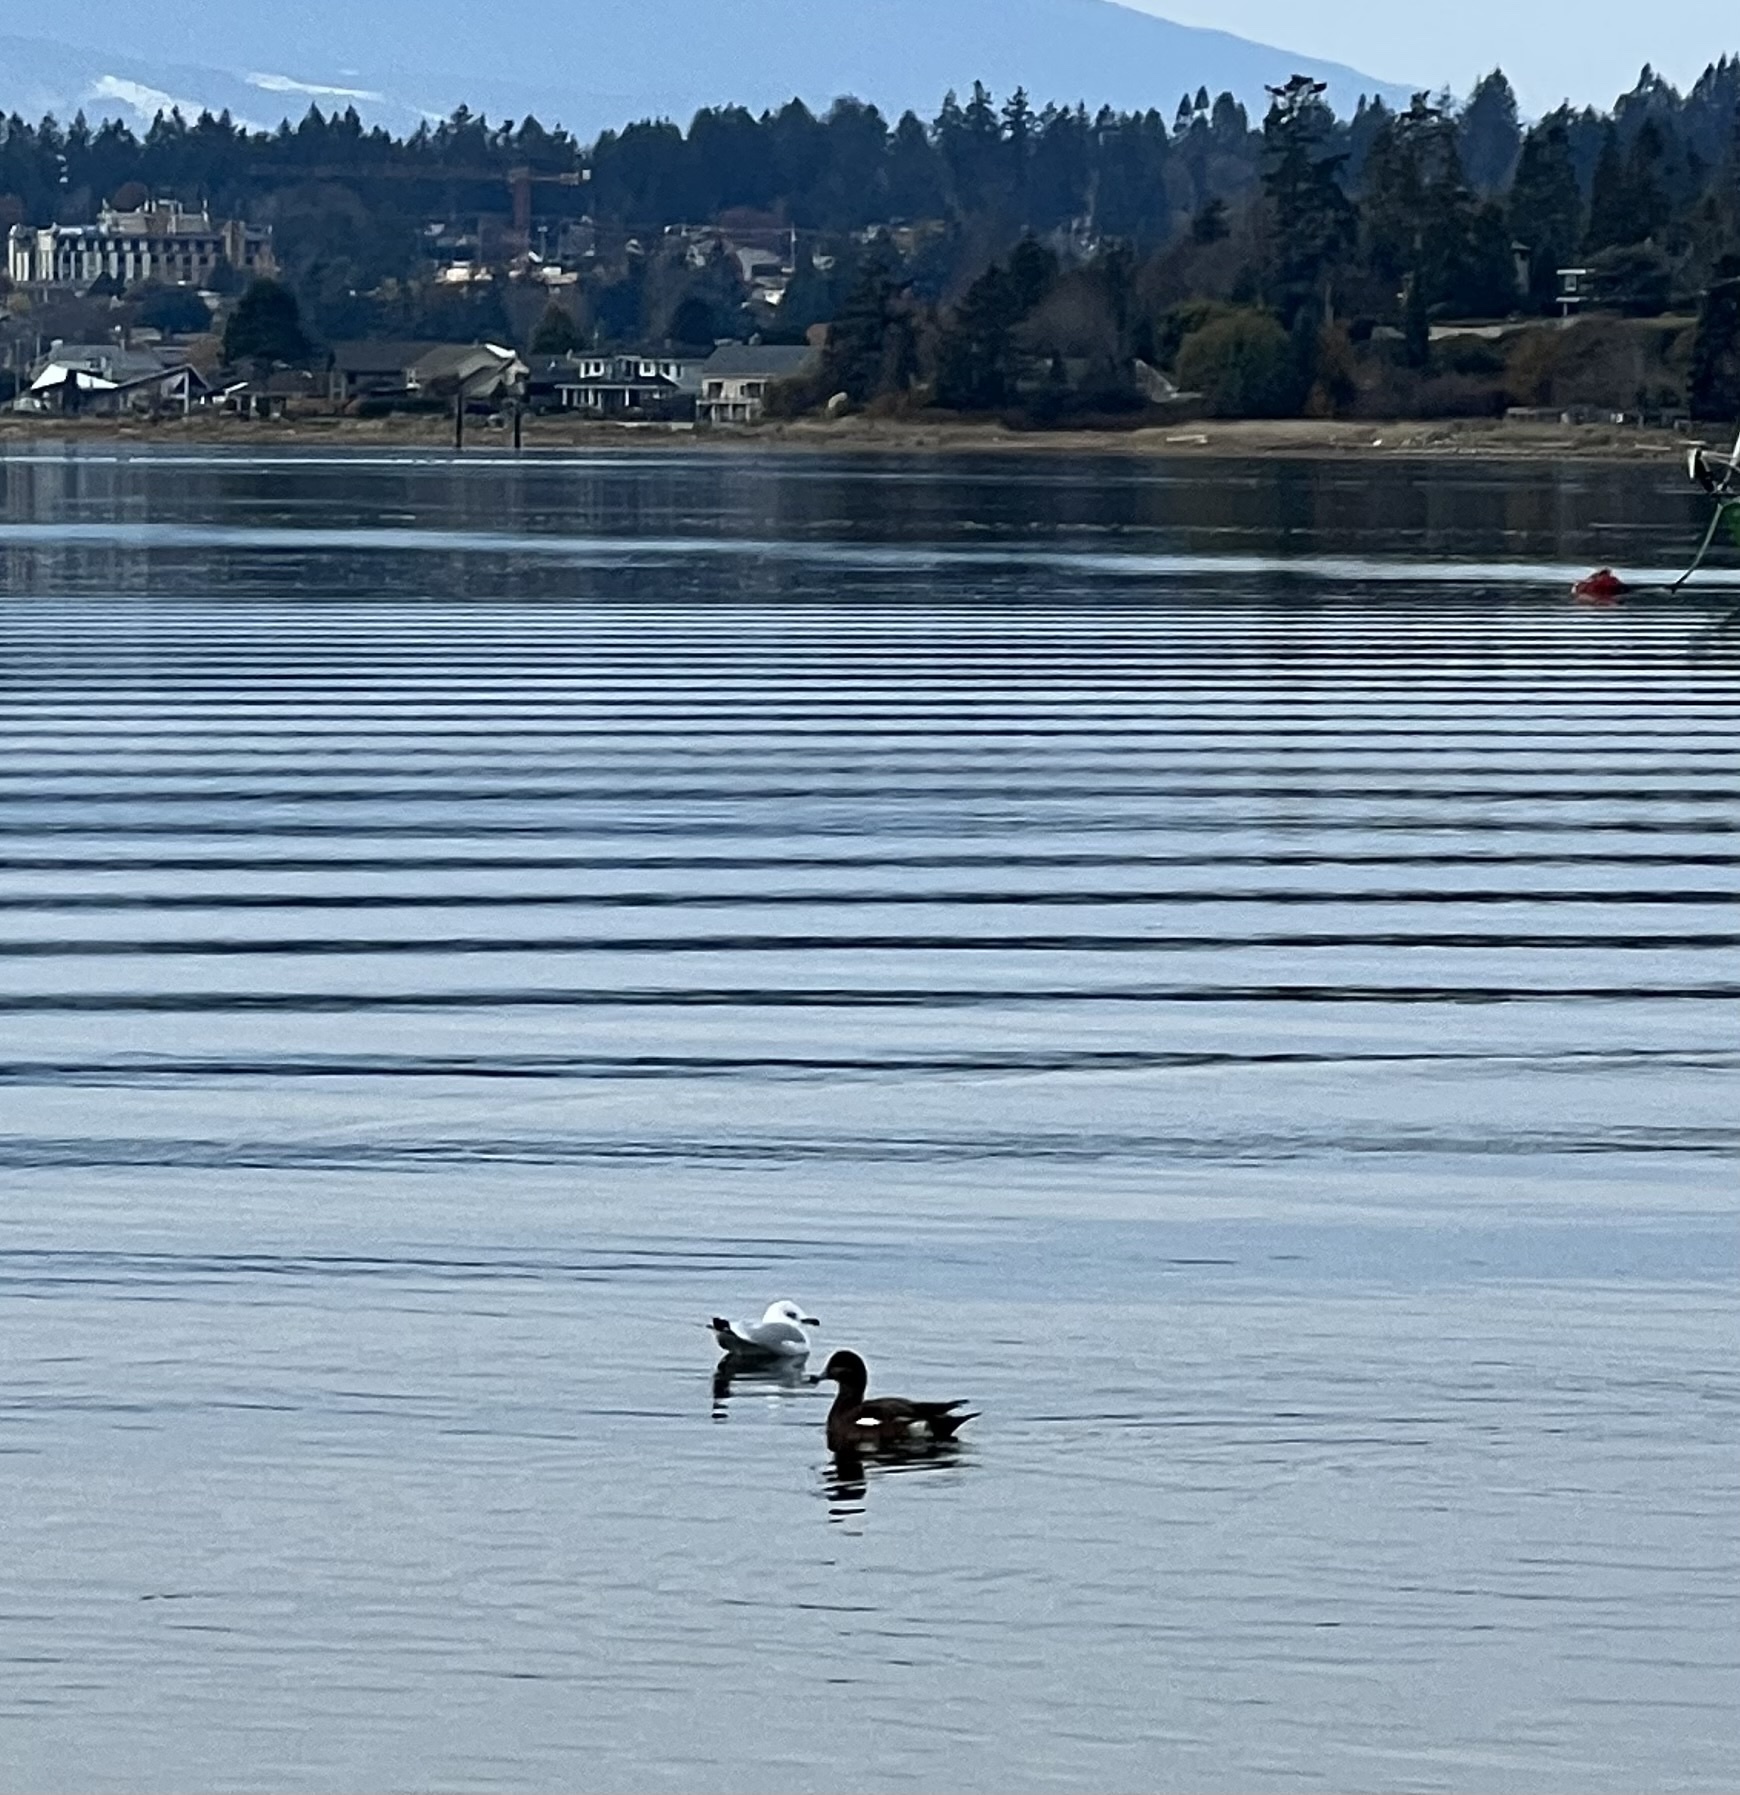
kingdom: Animalia
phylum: Chordata
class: Aves
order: Charadriiformes
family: Laridae
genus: Larus
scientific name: Larus delawarensis
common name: Ring-billed gull
